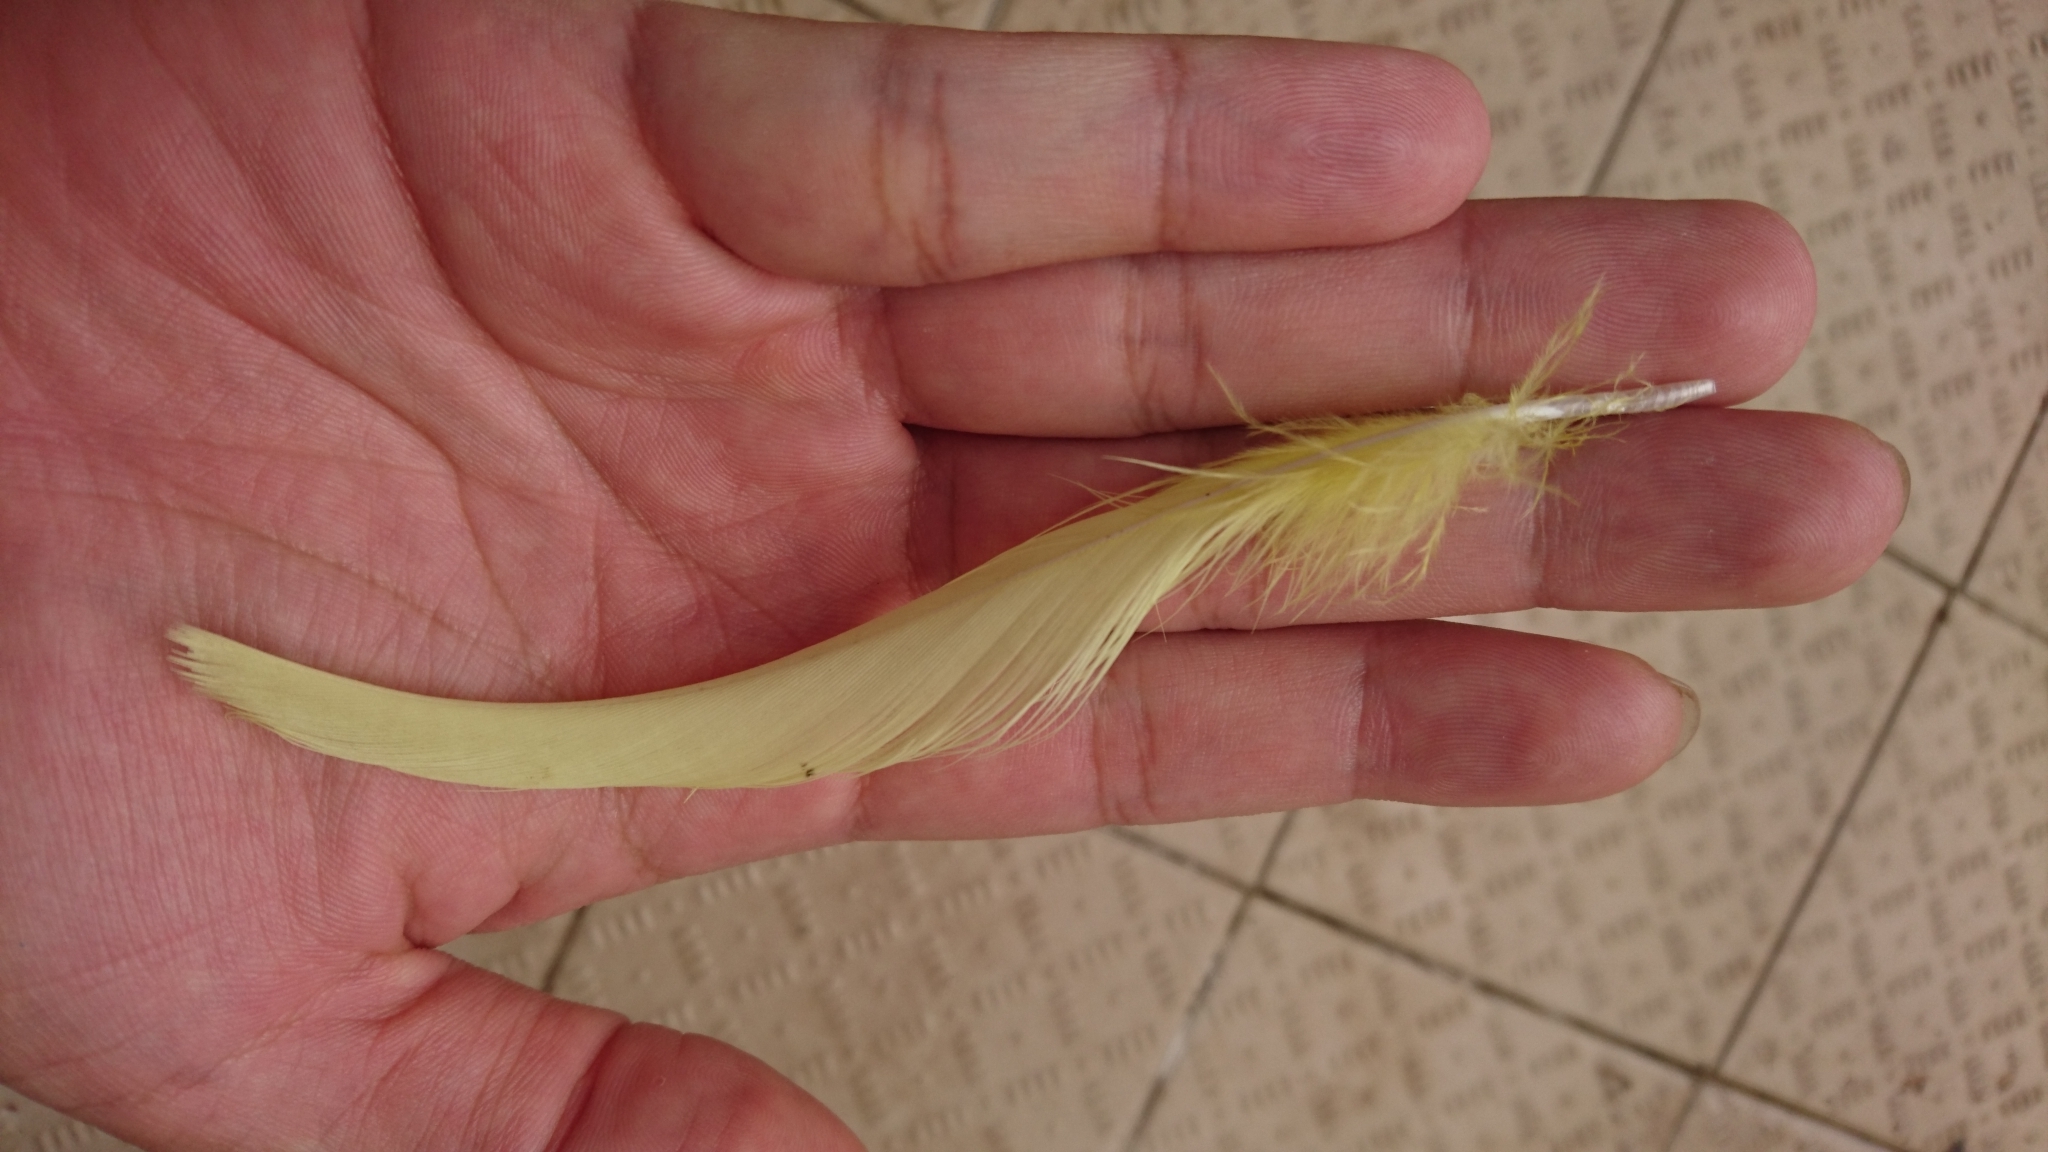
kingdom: Animalia
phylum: Chordata
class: Aves
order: Psittaciformes
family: Psittacidae
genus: Cacatua
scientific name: Cacatua galerita
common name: Sulphur-crested cockatoo
